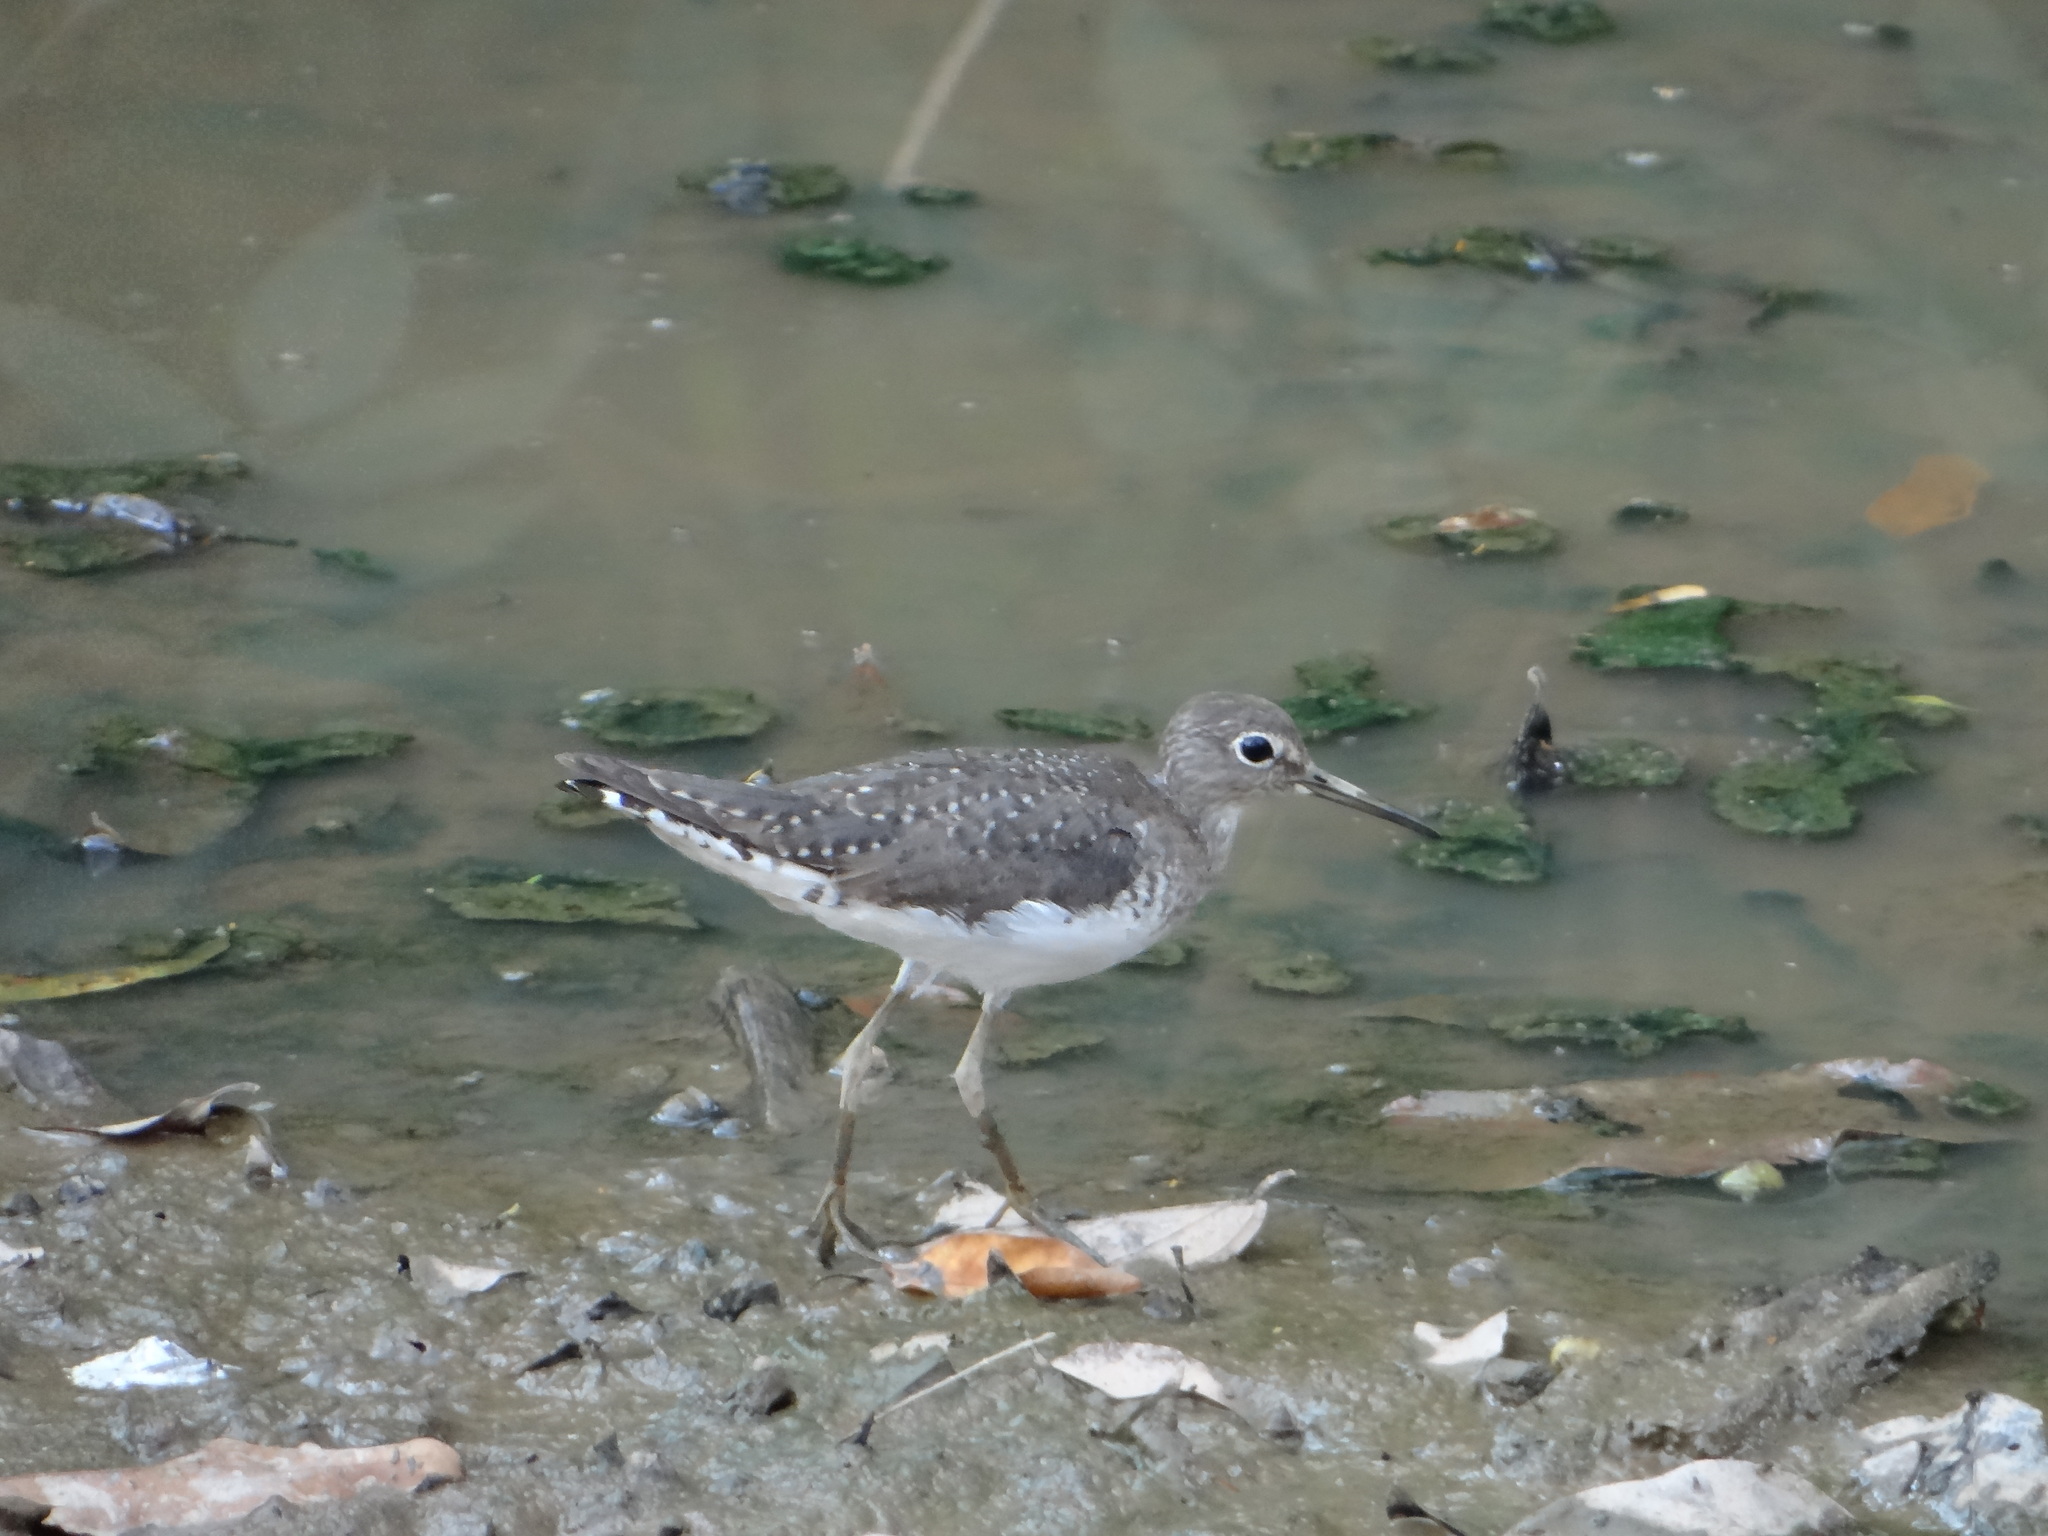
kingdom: Animalia
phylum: Chordata
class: Aves
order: Charadriiformes
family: Scolopacidae
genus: Tringa
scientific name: Tringa solitaria
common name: Solitary sandpiper
